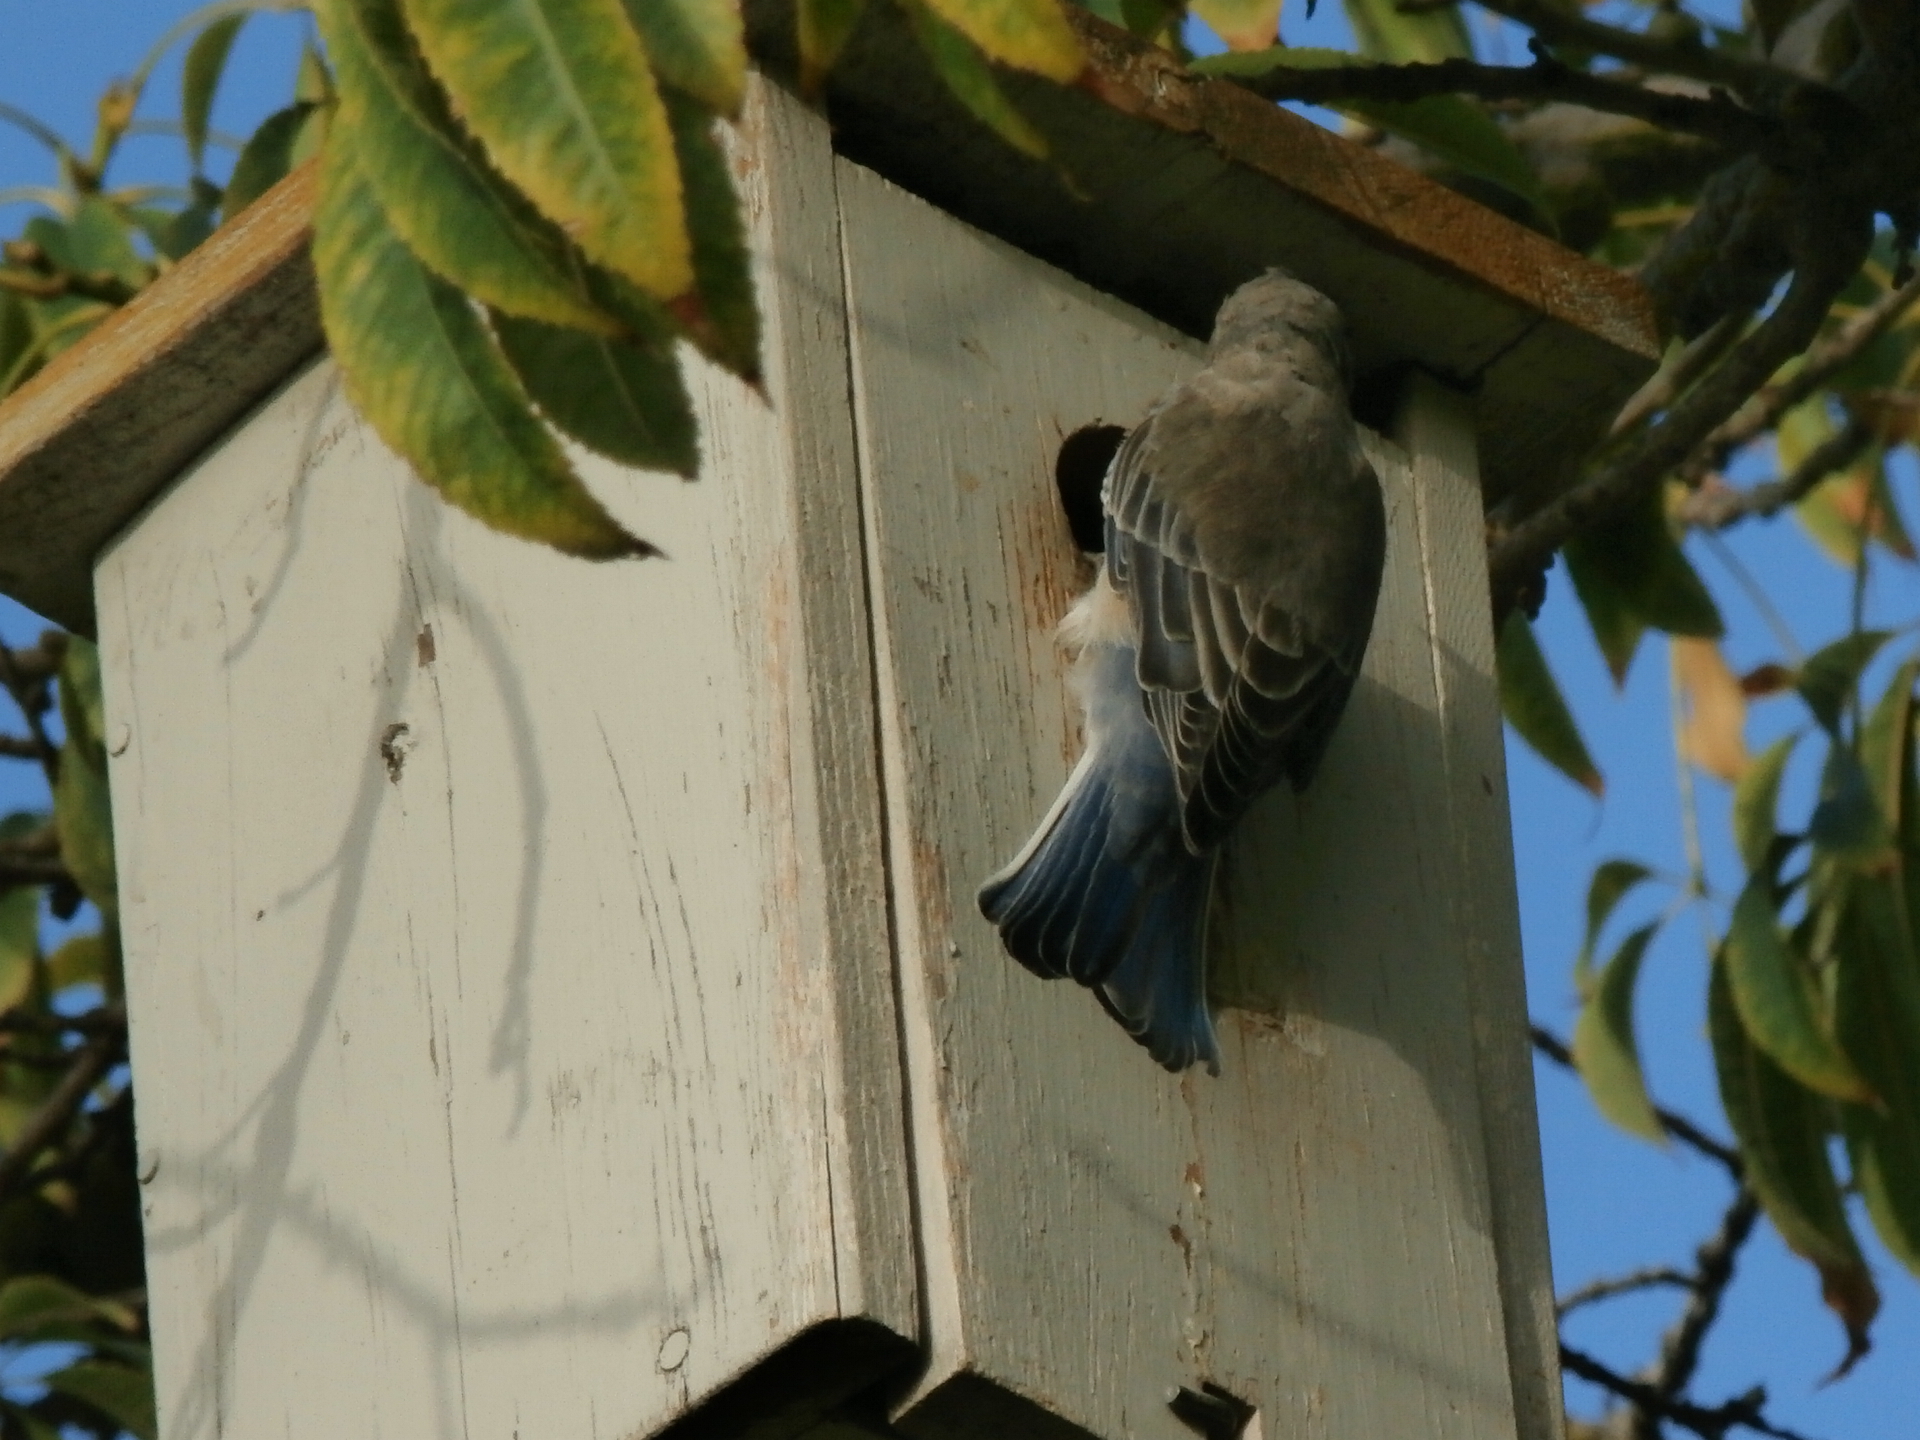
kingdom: Animalia
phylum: Chordata
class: Aves
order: Passeriformes
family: Turdidae
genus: Sialia
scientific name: Sialia mexicana
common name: Western bluebird
